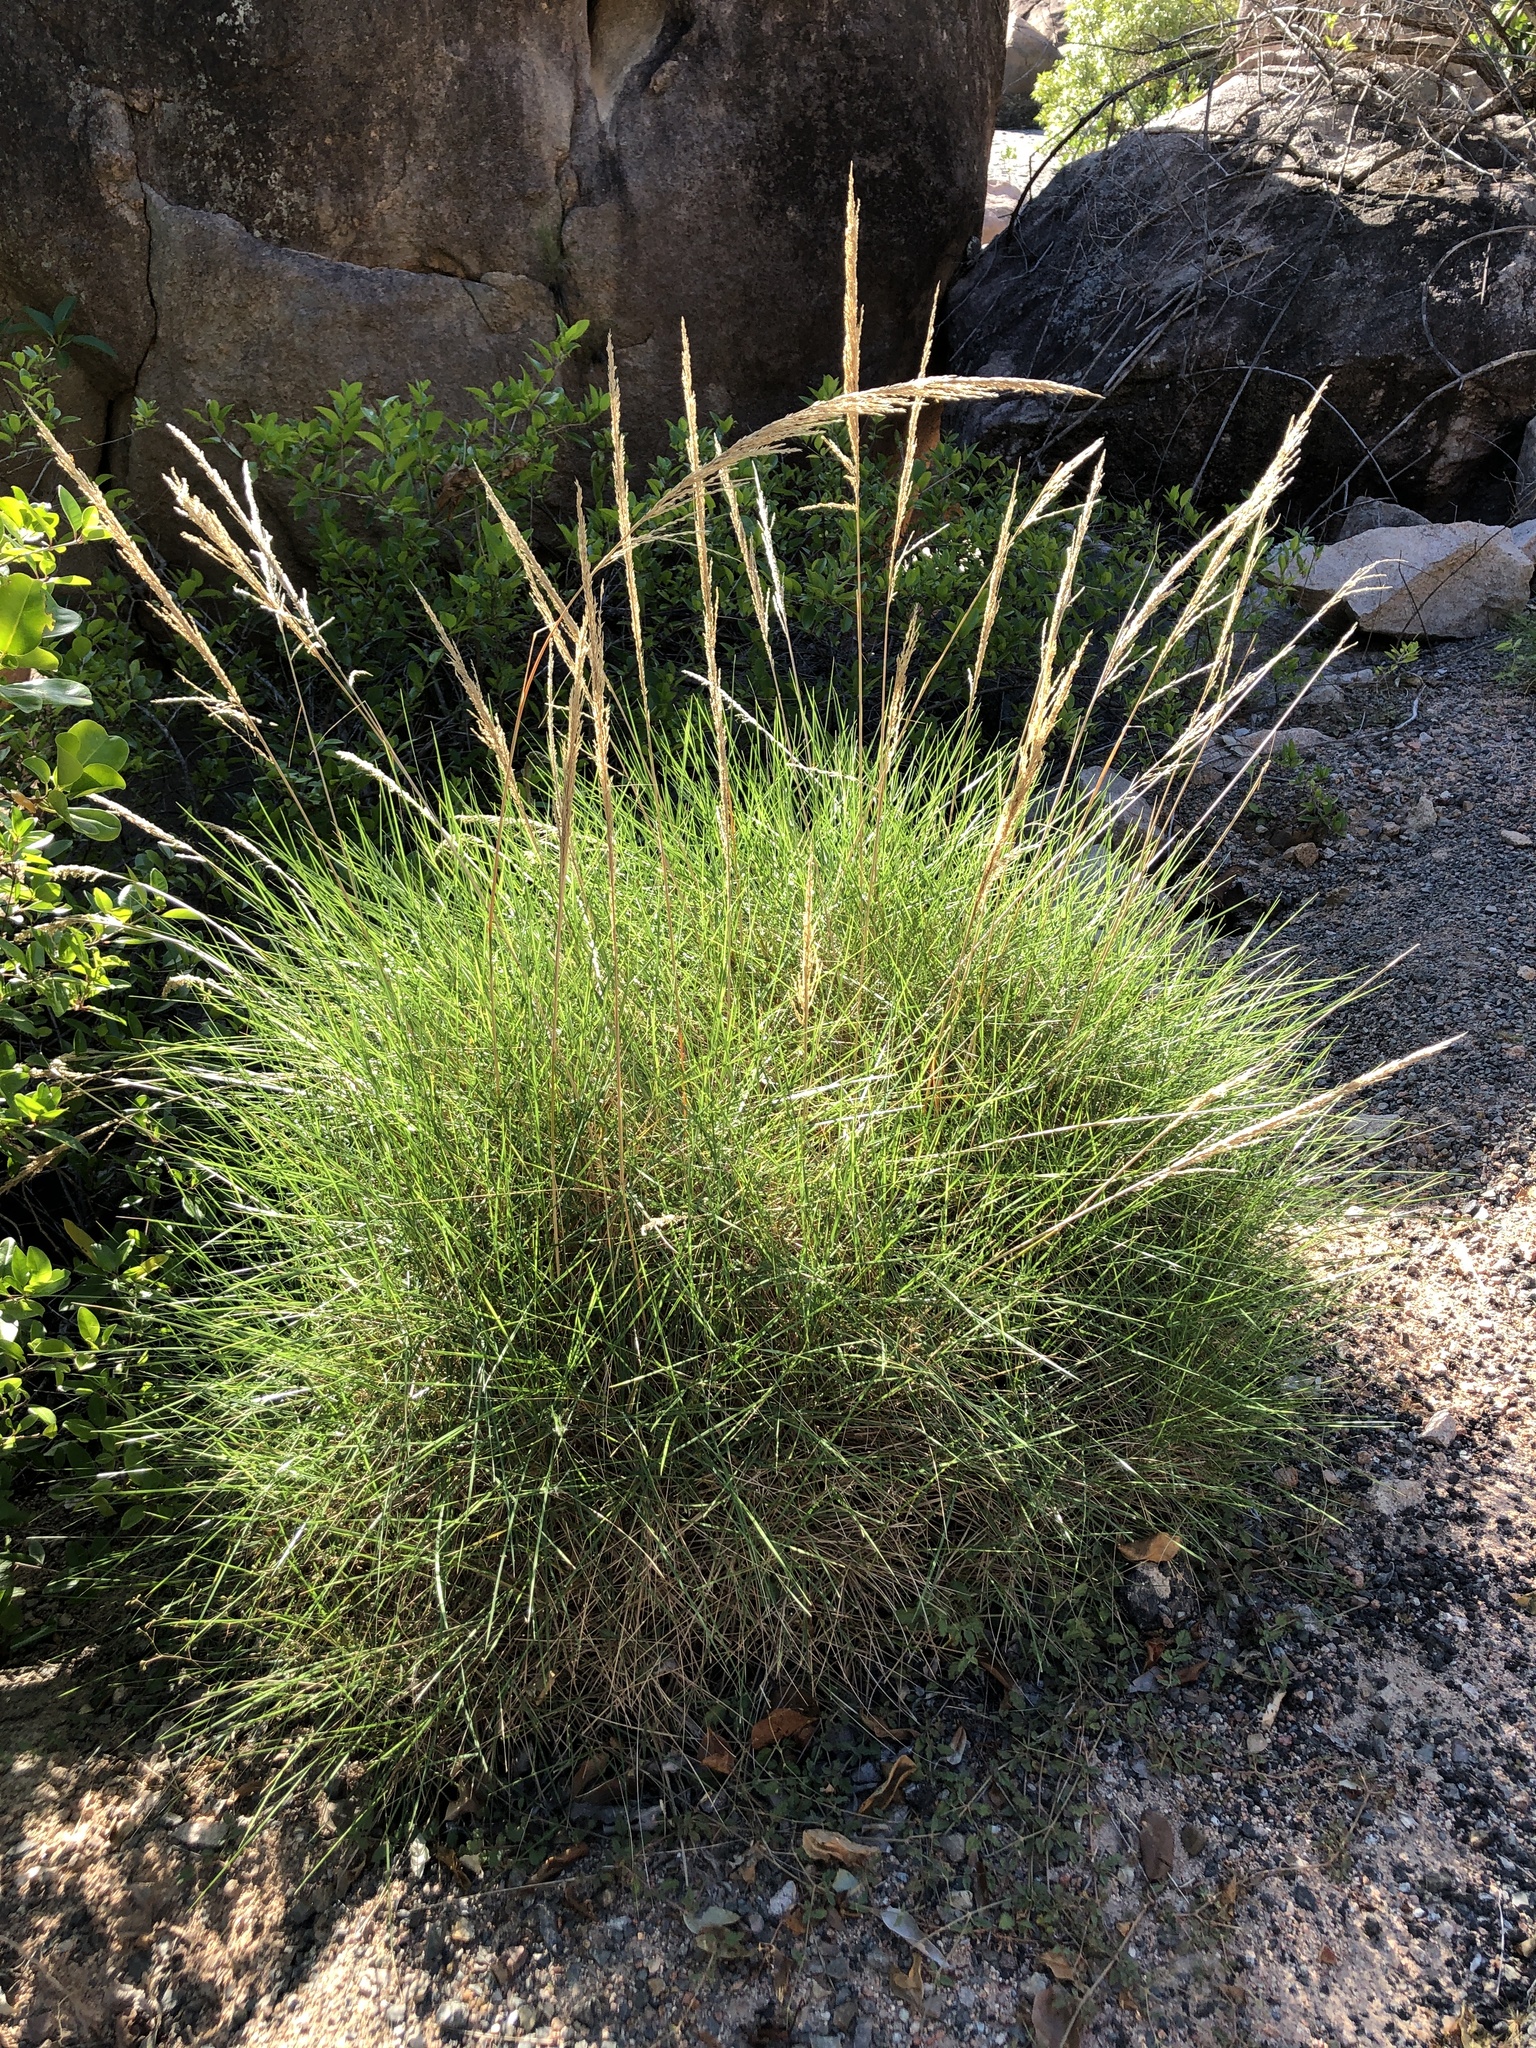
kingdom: Plantae
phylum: Tracheophyta
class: Liliopsida
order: Poales
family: Poaceae
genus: Triodia
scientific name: Triodia stenostachya
